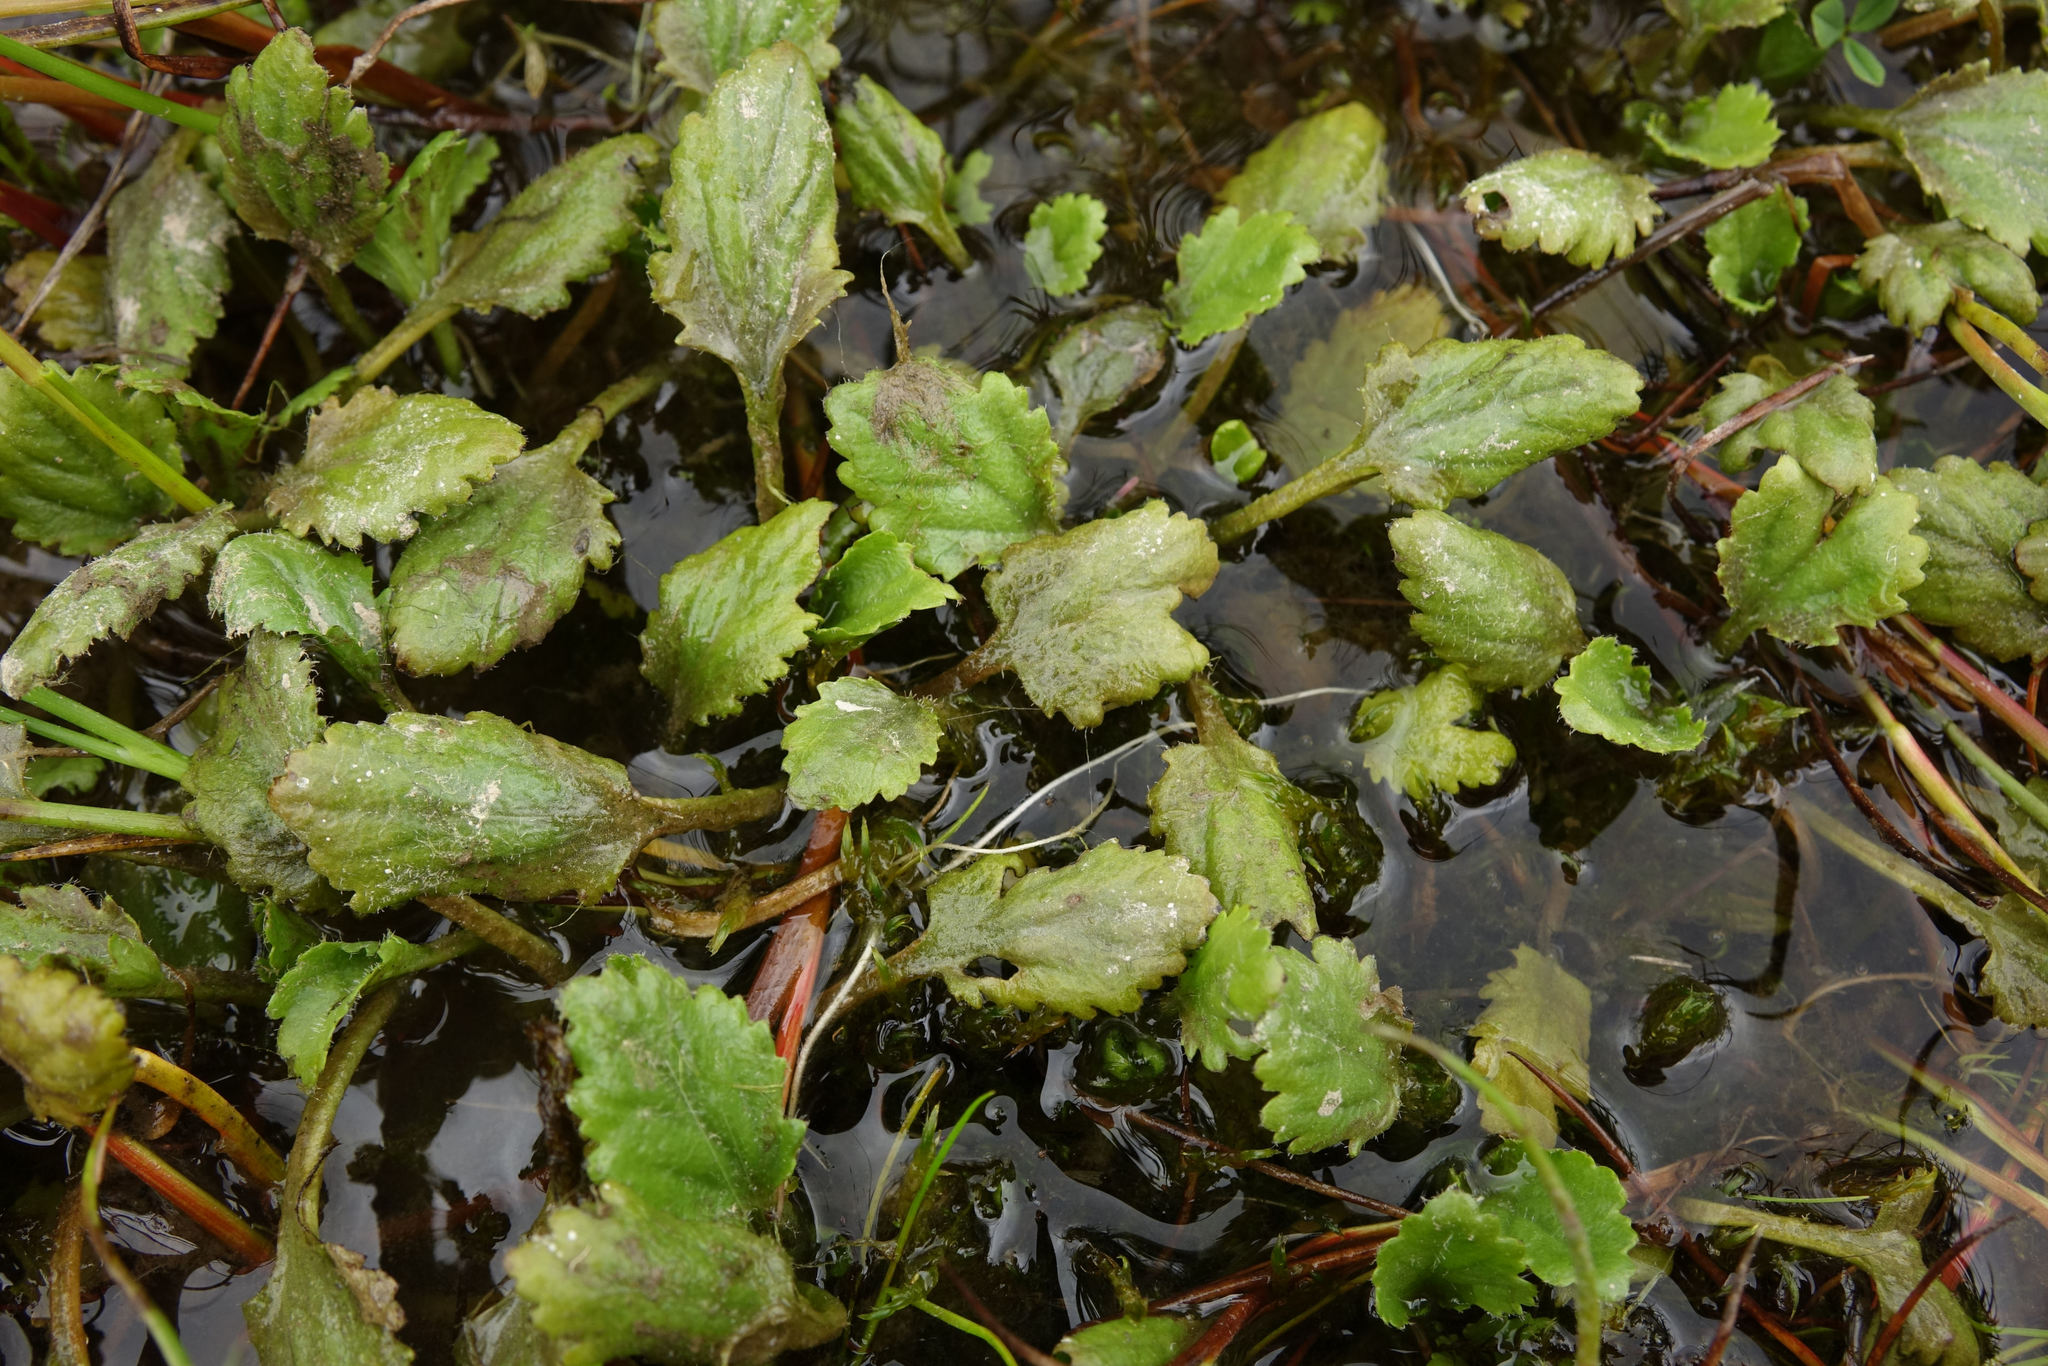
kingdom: Plantae
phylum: Tracheophyta
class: Magnoliopsida
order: Gunnerales
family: Gunneraceae
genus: Gunnera
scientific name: Gunnera dentata
